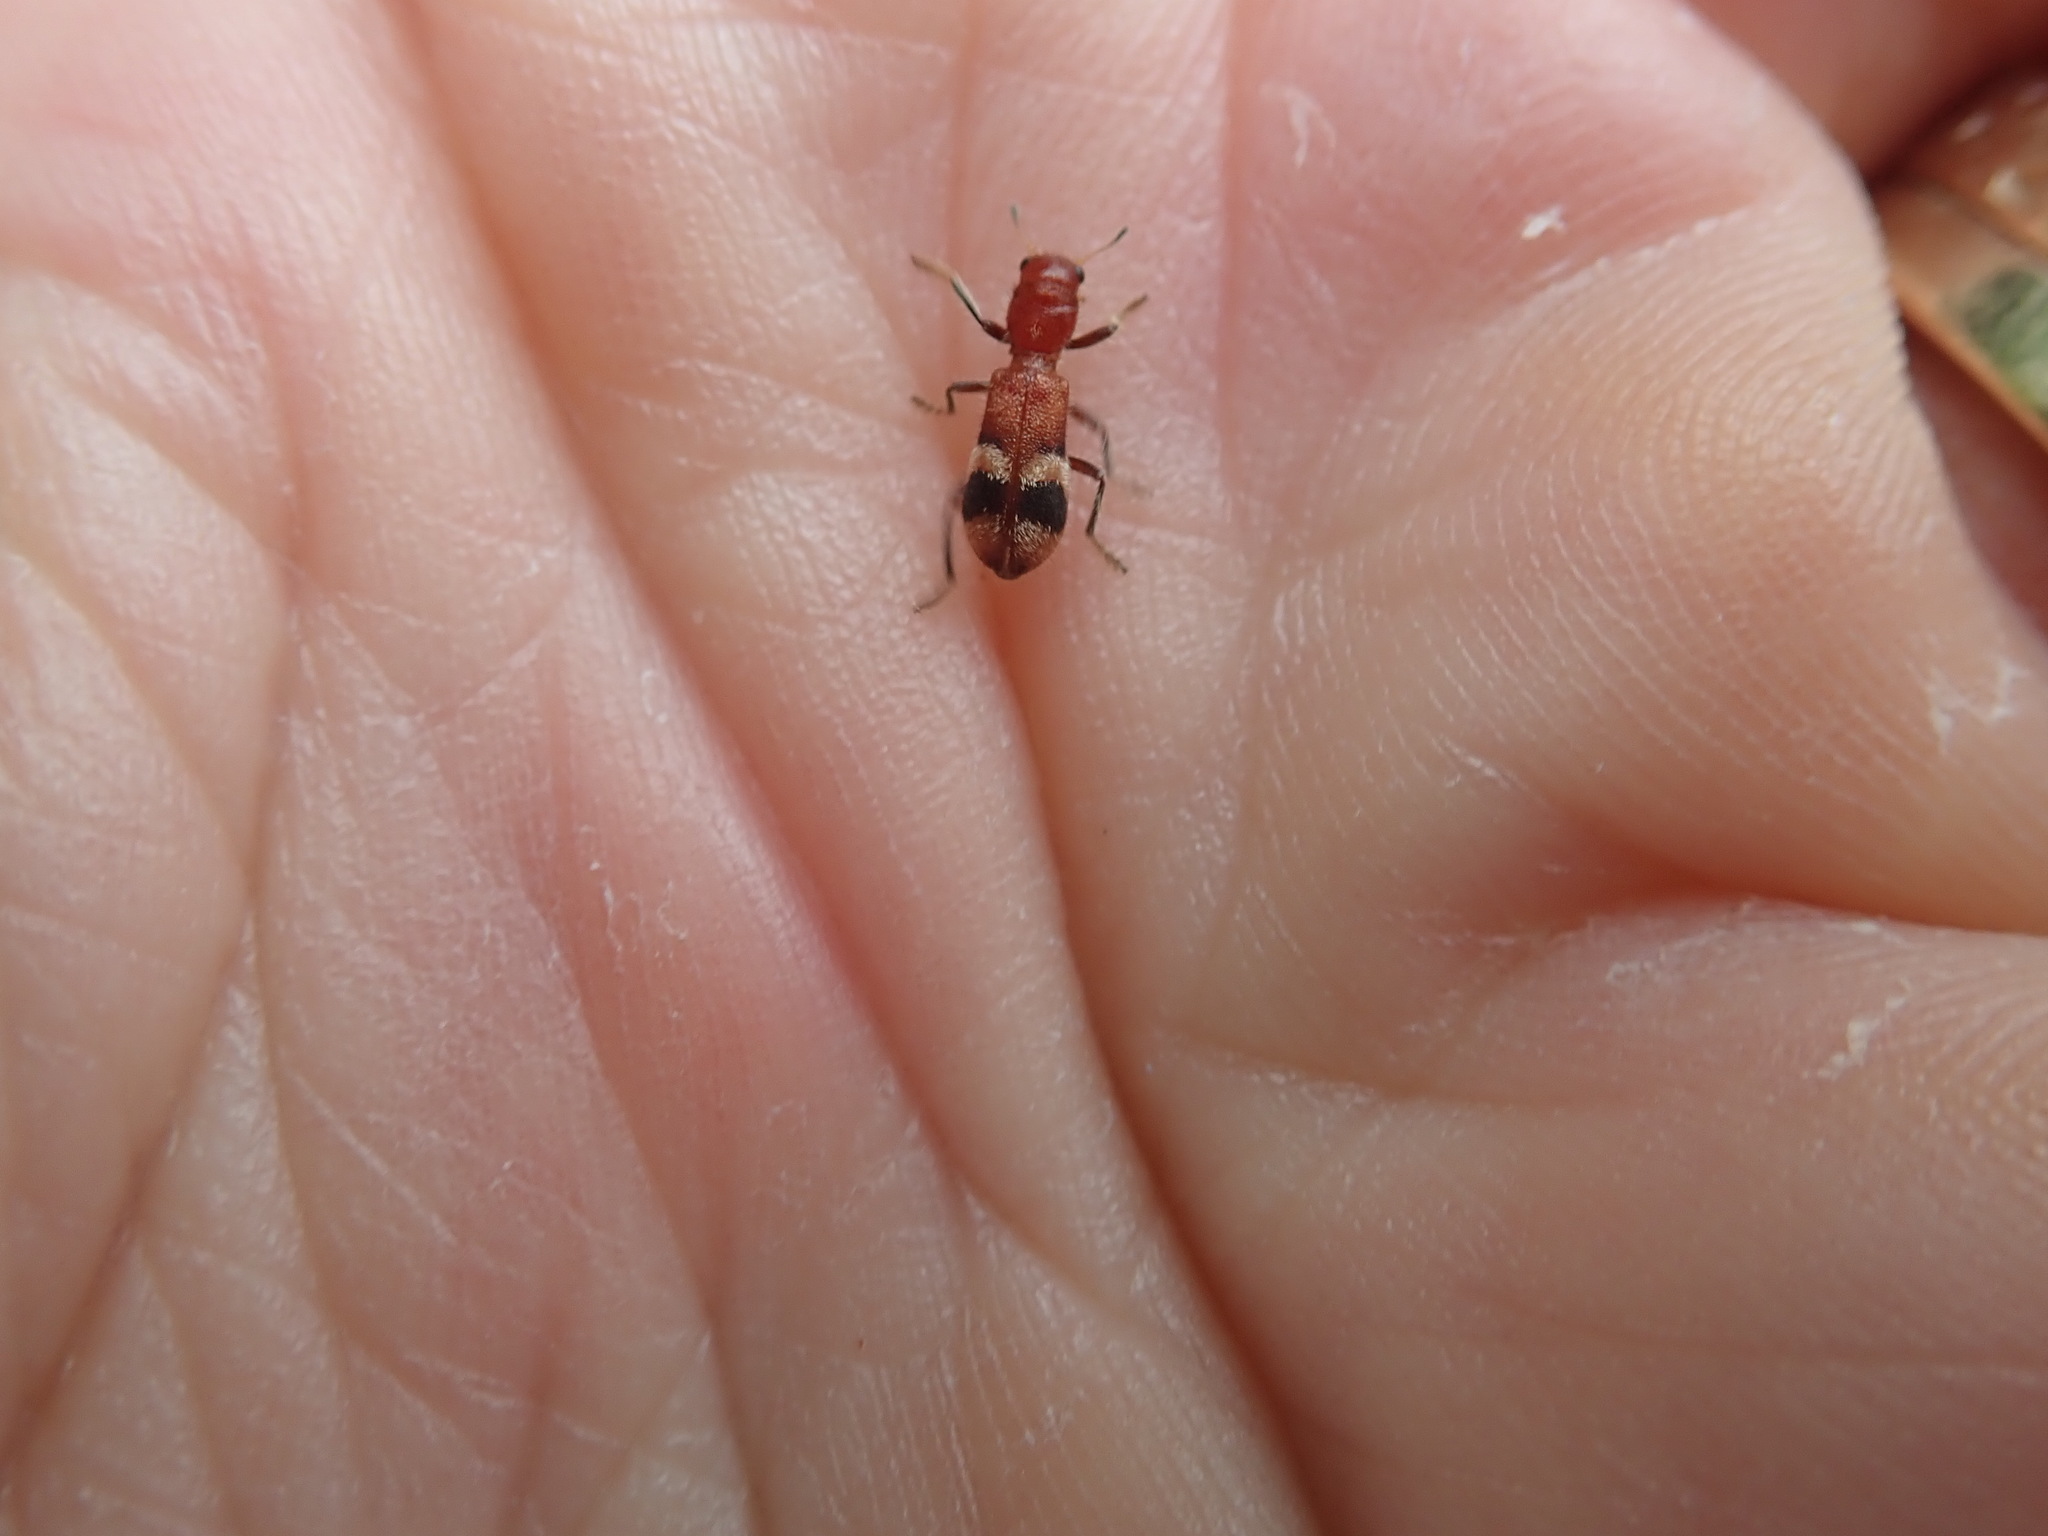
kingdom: Animalia
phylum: Arthropoda
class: Insecta
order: Coleoptera
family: Cleridae
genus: Enoclerus
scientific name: Enoclerus nigripes
